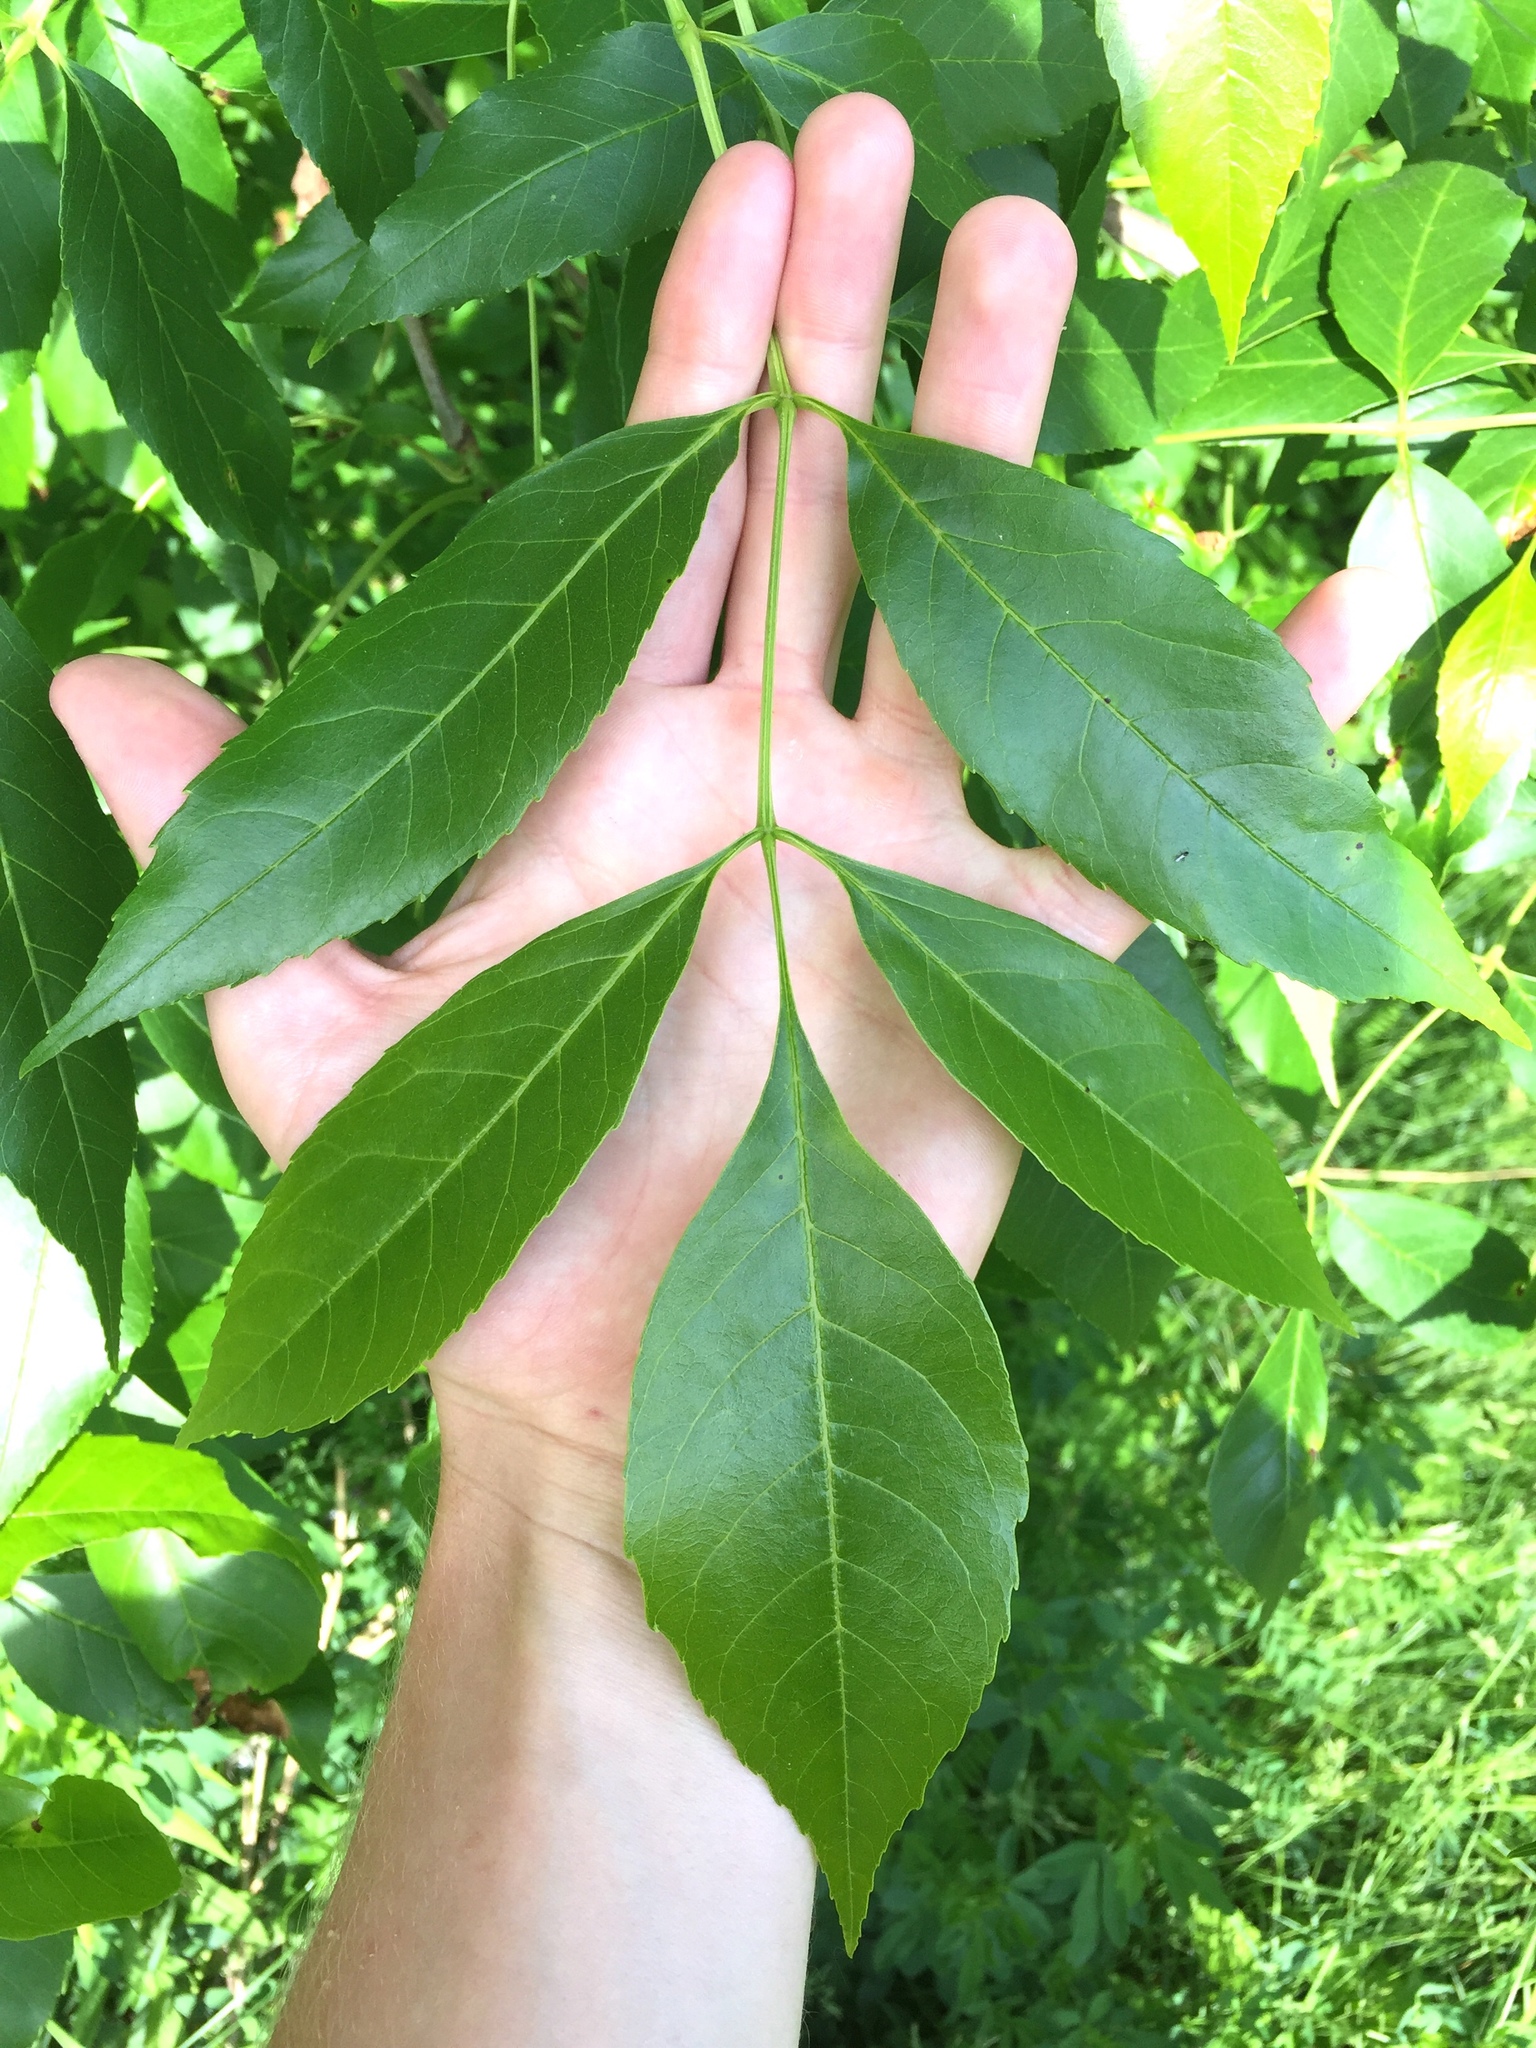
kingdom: Plantae
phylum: Tracheophyta
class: Magnoliopsida
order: Lamiales
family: Oleaceae
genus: Fraxinus
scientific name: Fraxinus pennsylvanica
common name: Green ash
